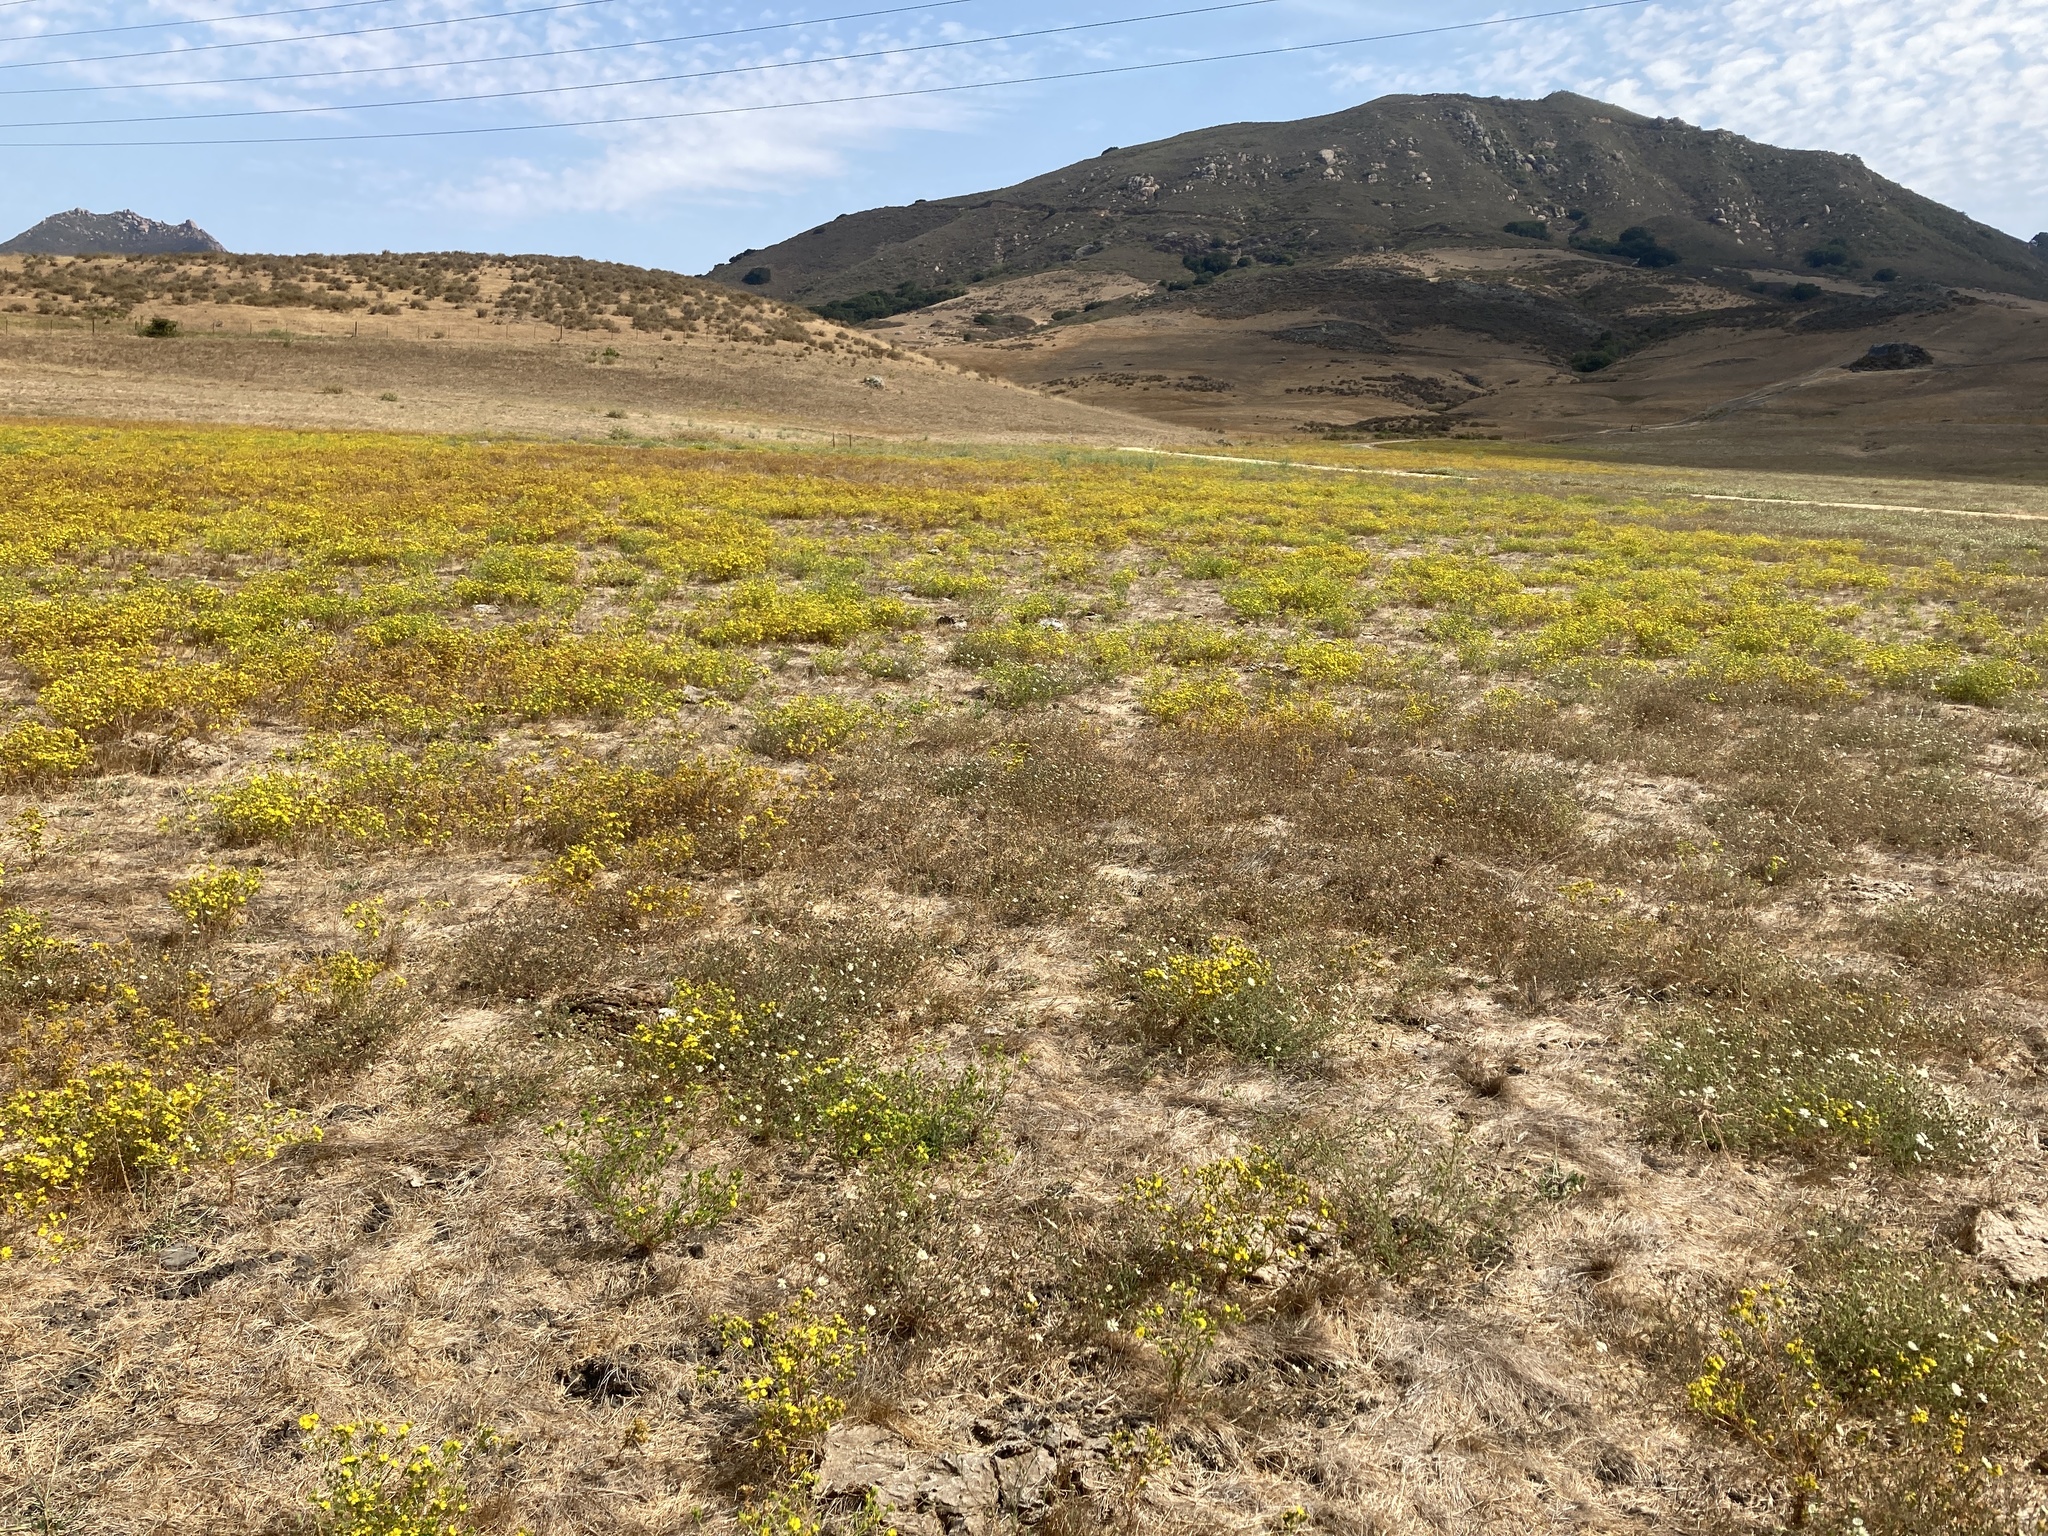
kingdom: Plantae
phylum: Tracheophyta
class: Magnoliopsida
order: Asterales
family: Asteraceae
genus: Deinandra
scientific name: Deinandra fasciculata
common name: Clustered tarweed
